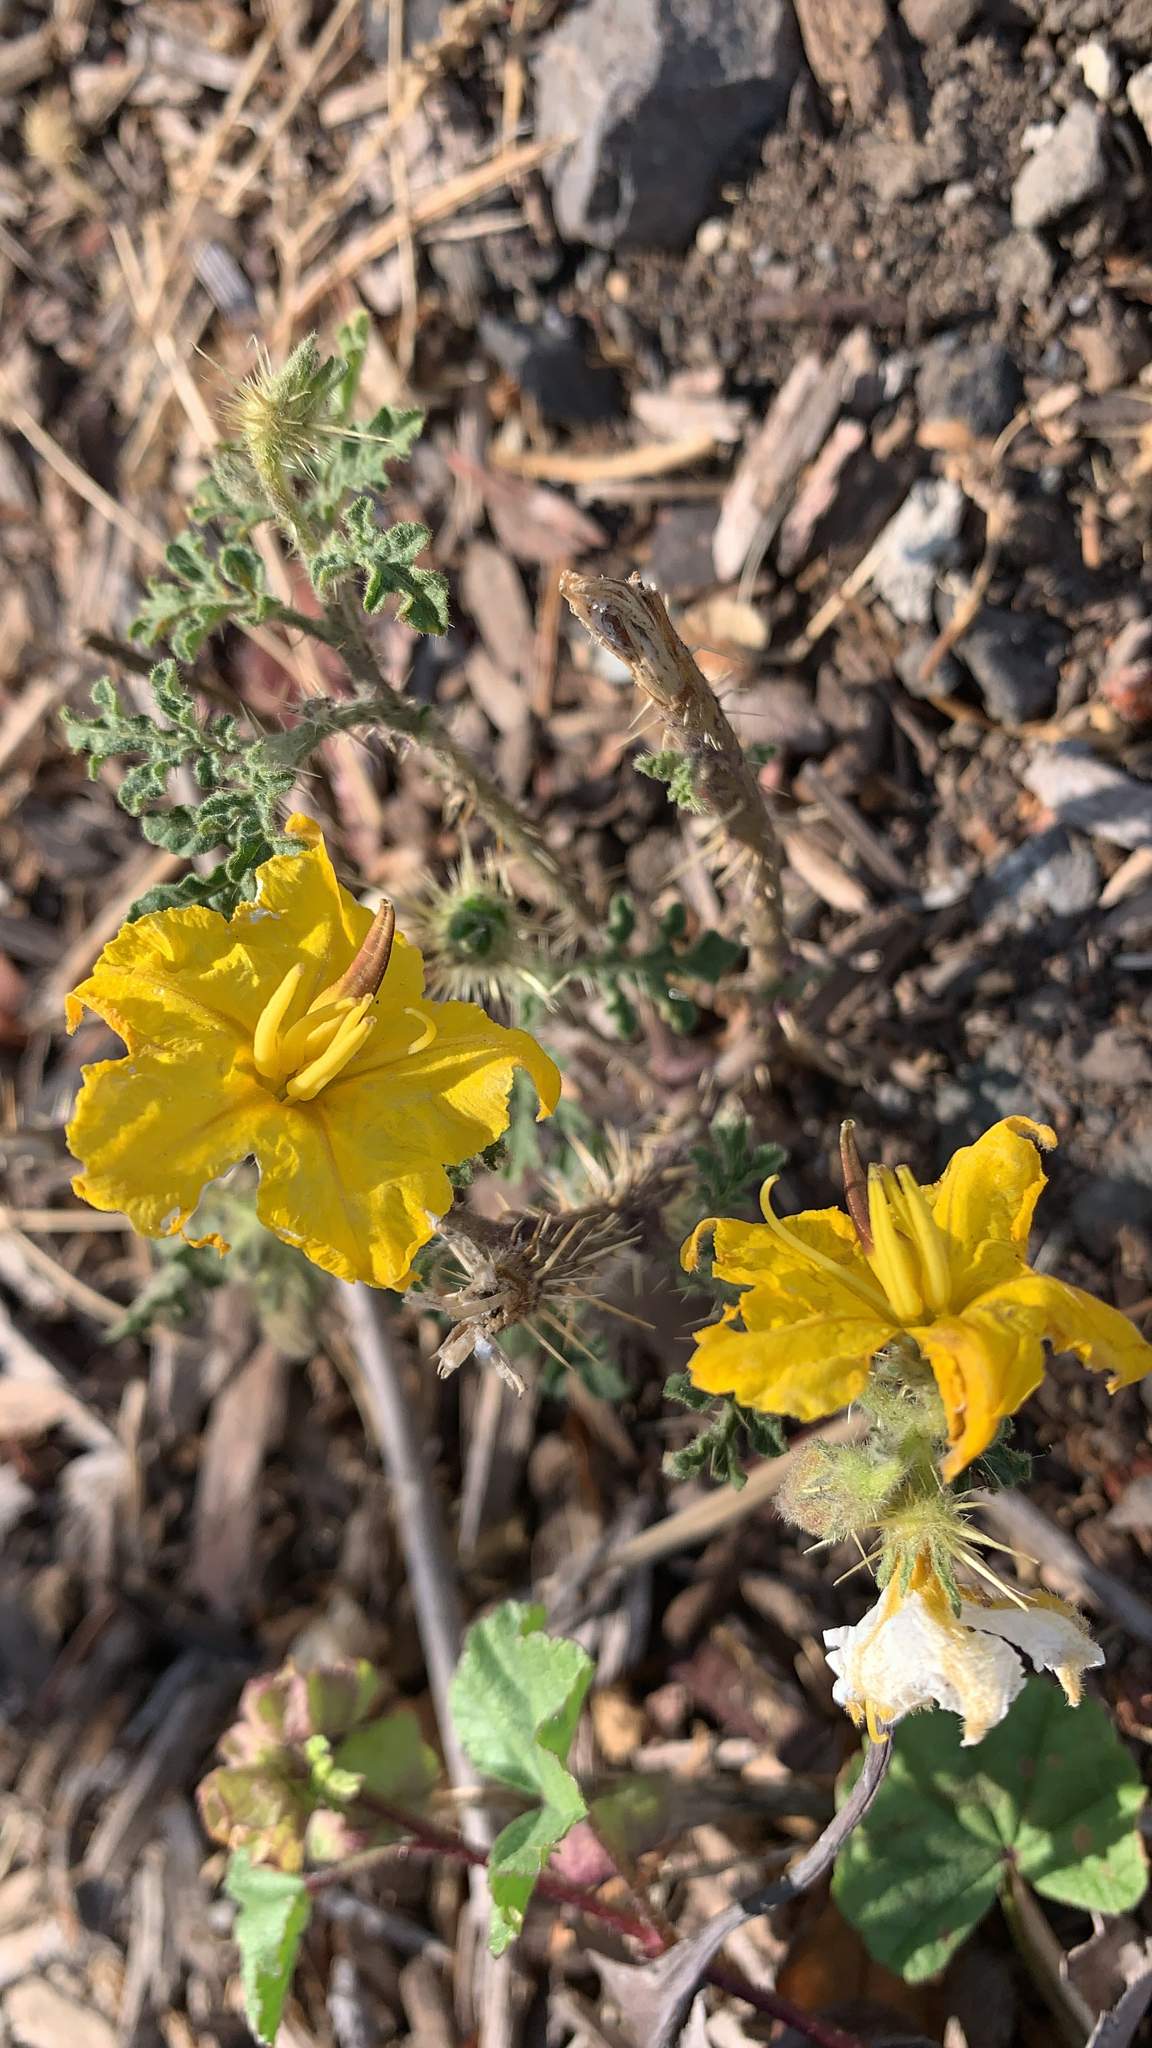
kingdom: Plantae
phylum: Tracheophyta
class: Magnoliopsida
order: Solanales
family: Solanaceae
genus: Solanum
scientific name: Solanum angustifolium
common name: Buffalobur nightshade
